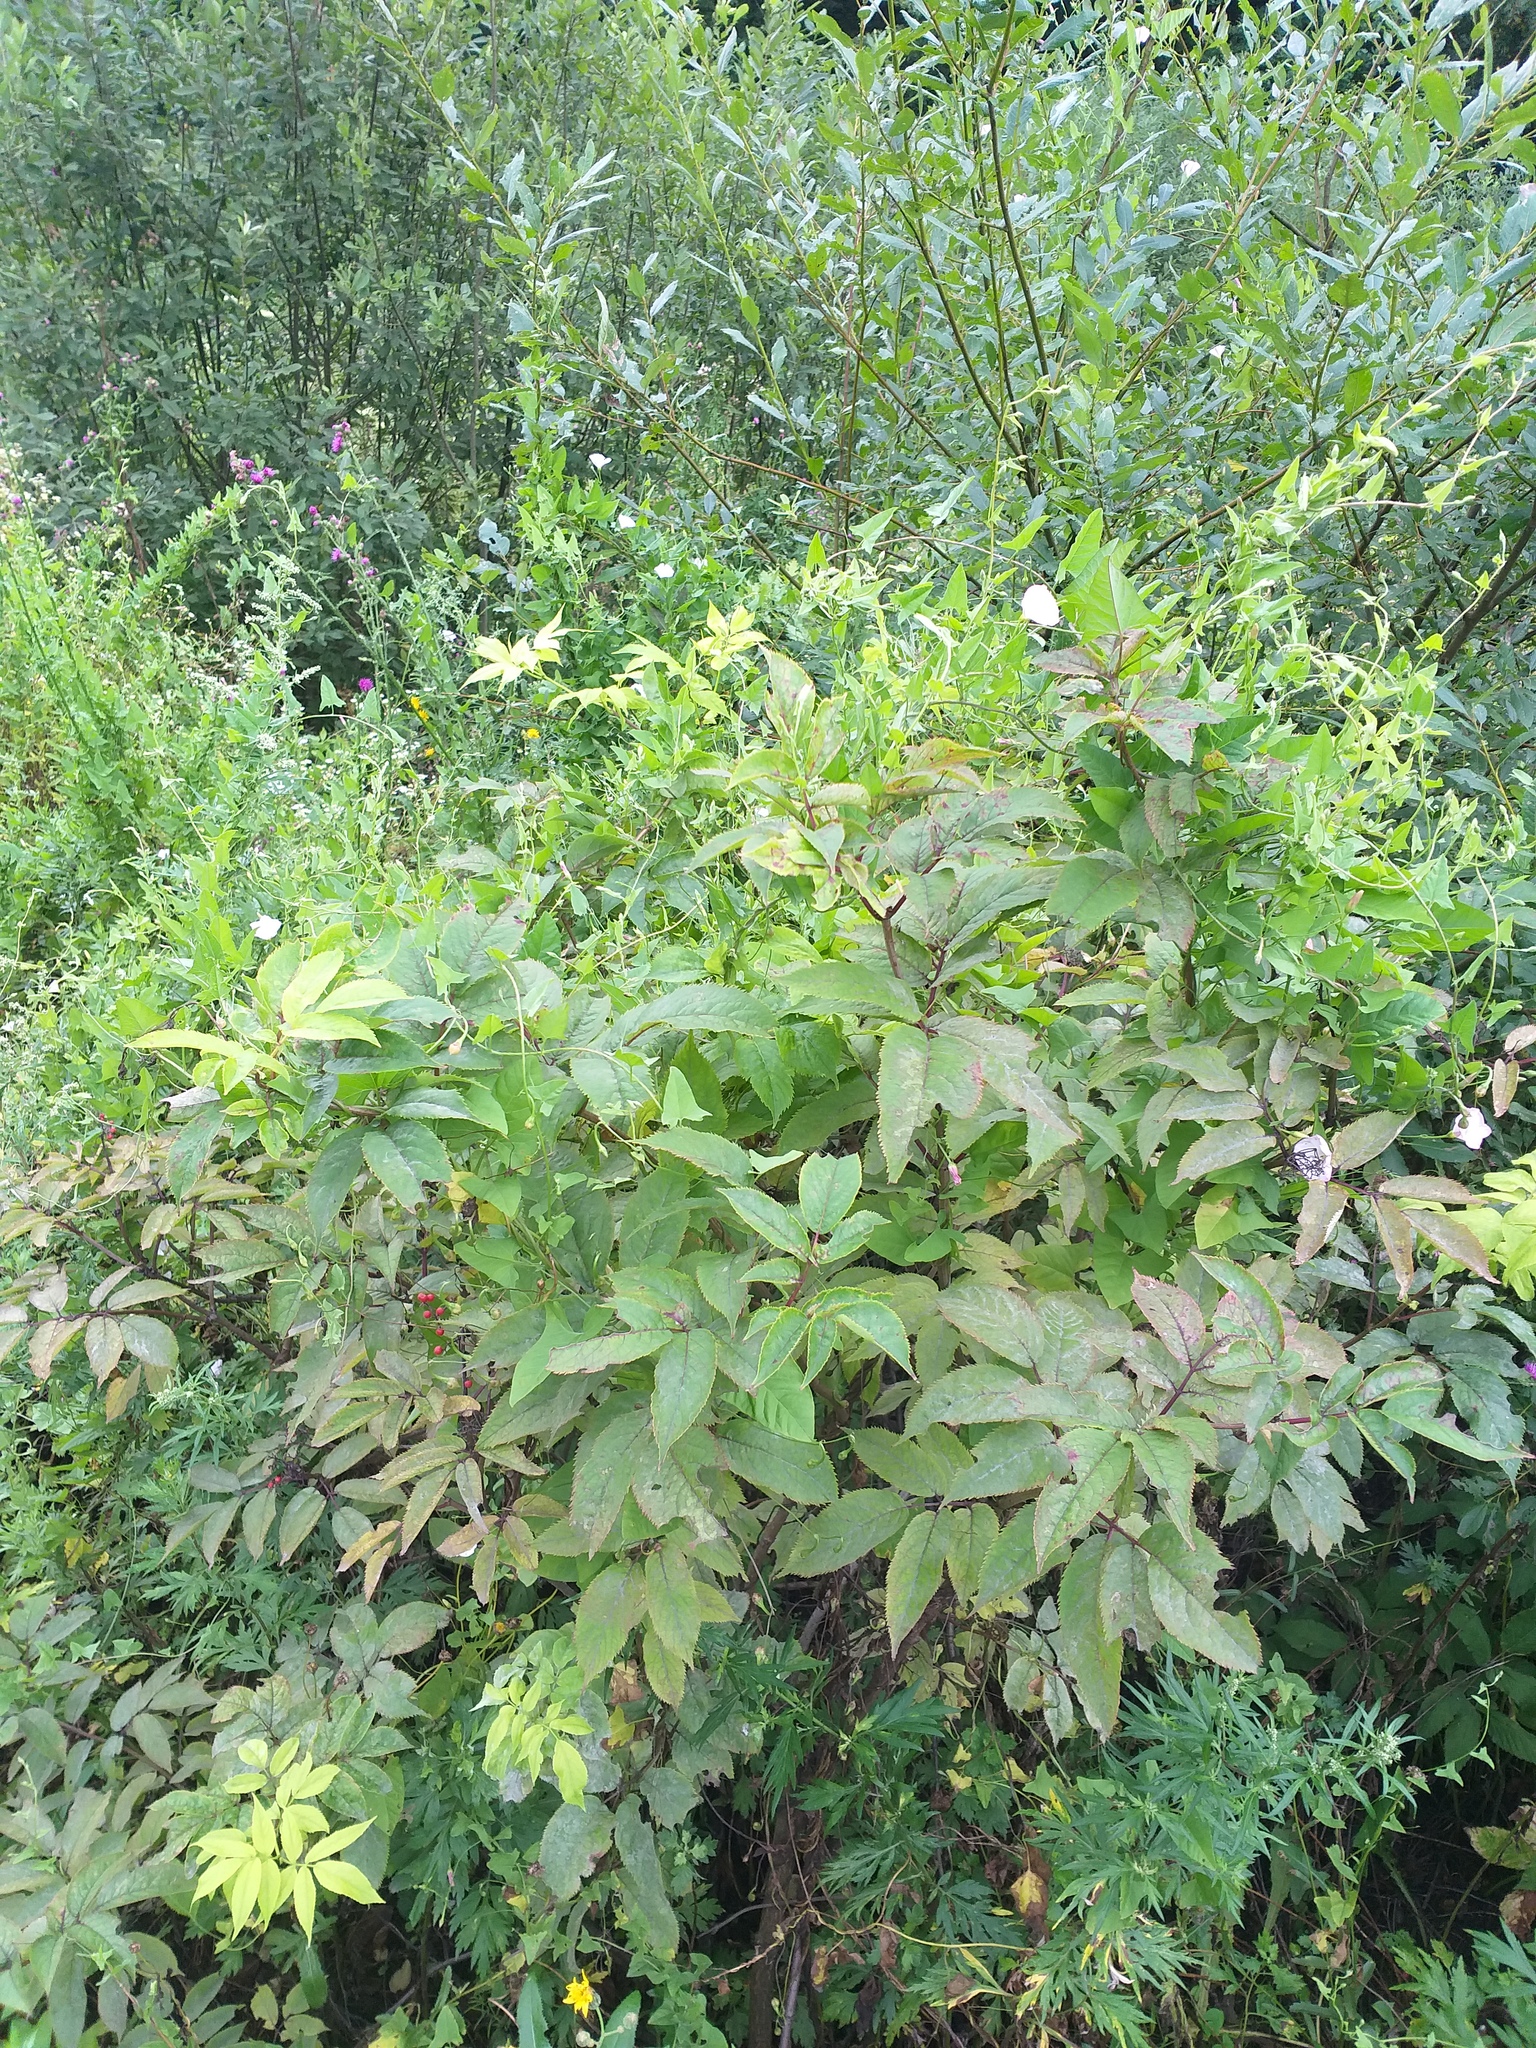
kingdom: Plantae
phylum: Tracheophyta
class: Magnoliopsida
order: Dipsacales
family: Viburnaceae
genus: Sambucus
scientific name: Sambucus racemosa
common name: Red-berried elder
